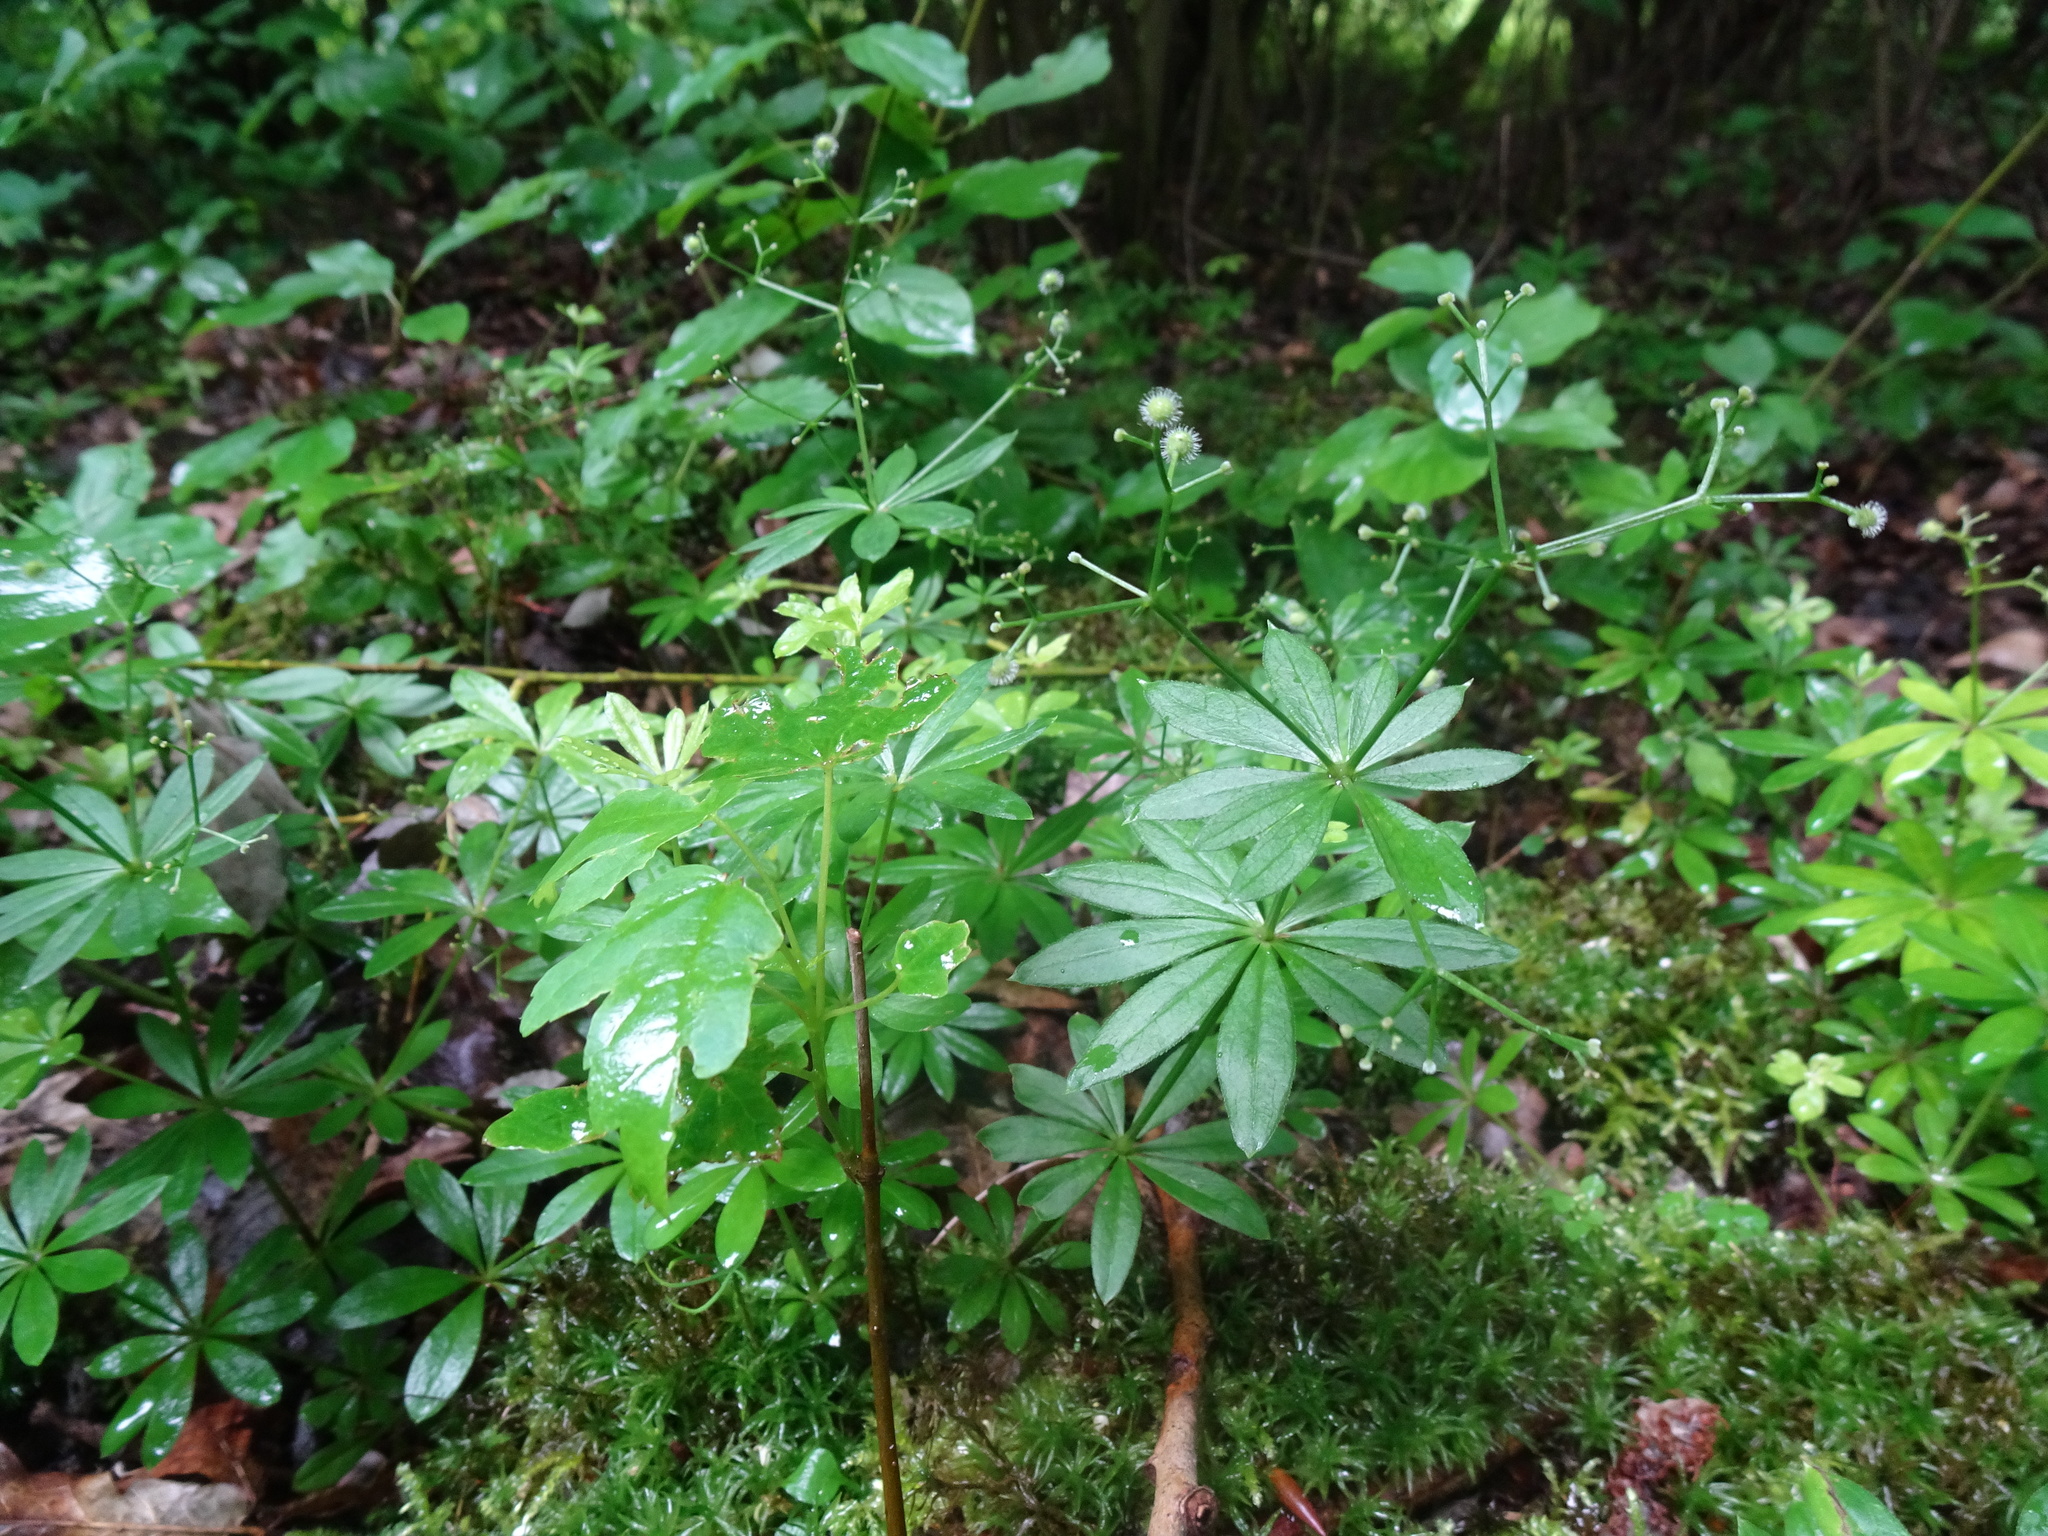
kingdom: Plantae
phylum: Tracheophyta
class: Magnoliopsida
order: Gentianales
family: Rubiaceae
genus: Galium
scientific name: Galium odoratum
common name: Sweet woodruff
